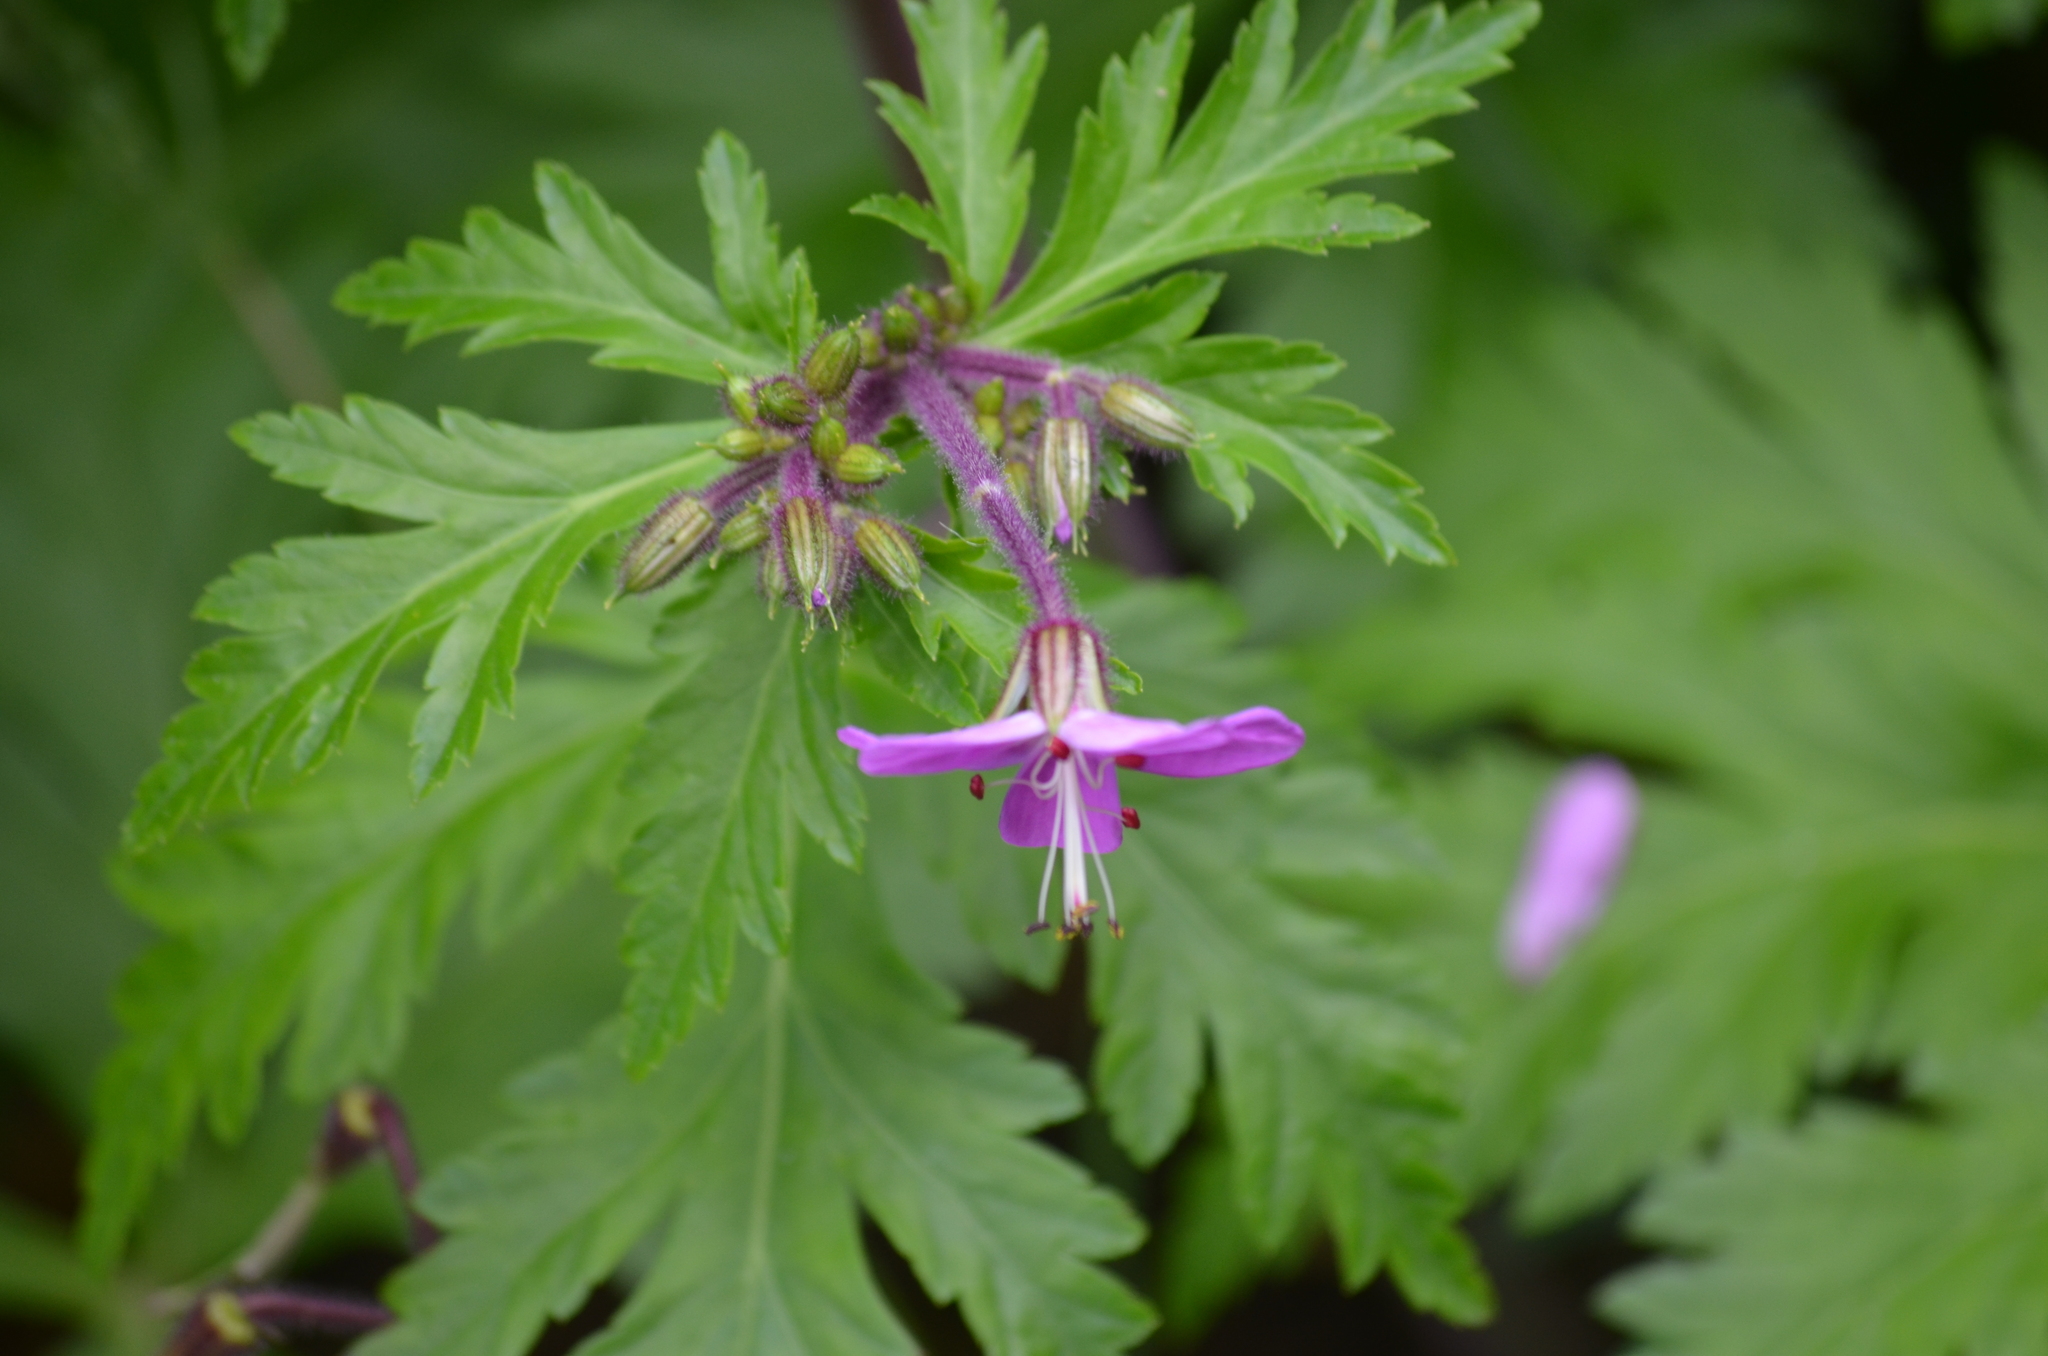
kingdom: Plantae
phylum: Tracheophyta
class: Magnoliopsida
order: Geraniales
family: Geraniaceae
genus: Geranium
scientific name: Geranium reuteri
